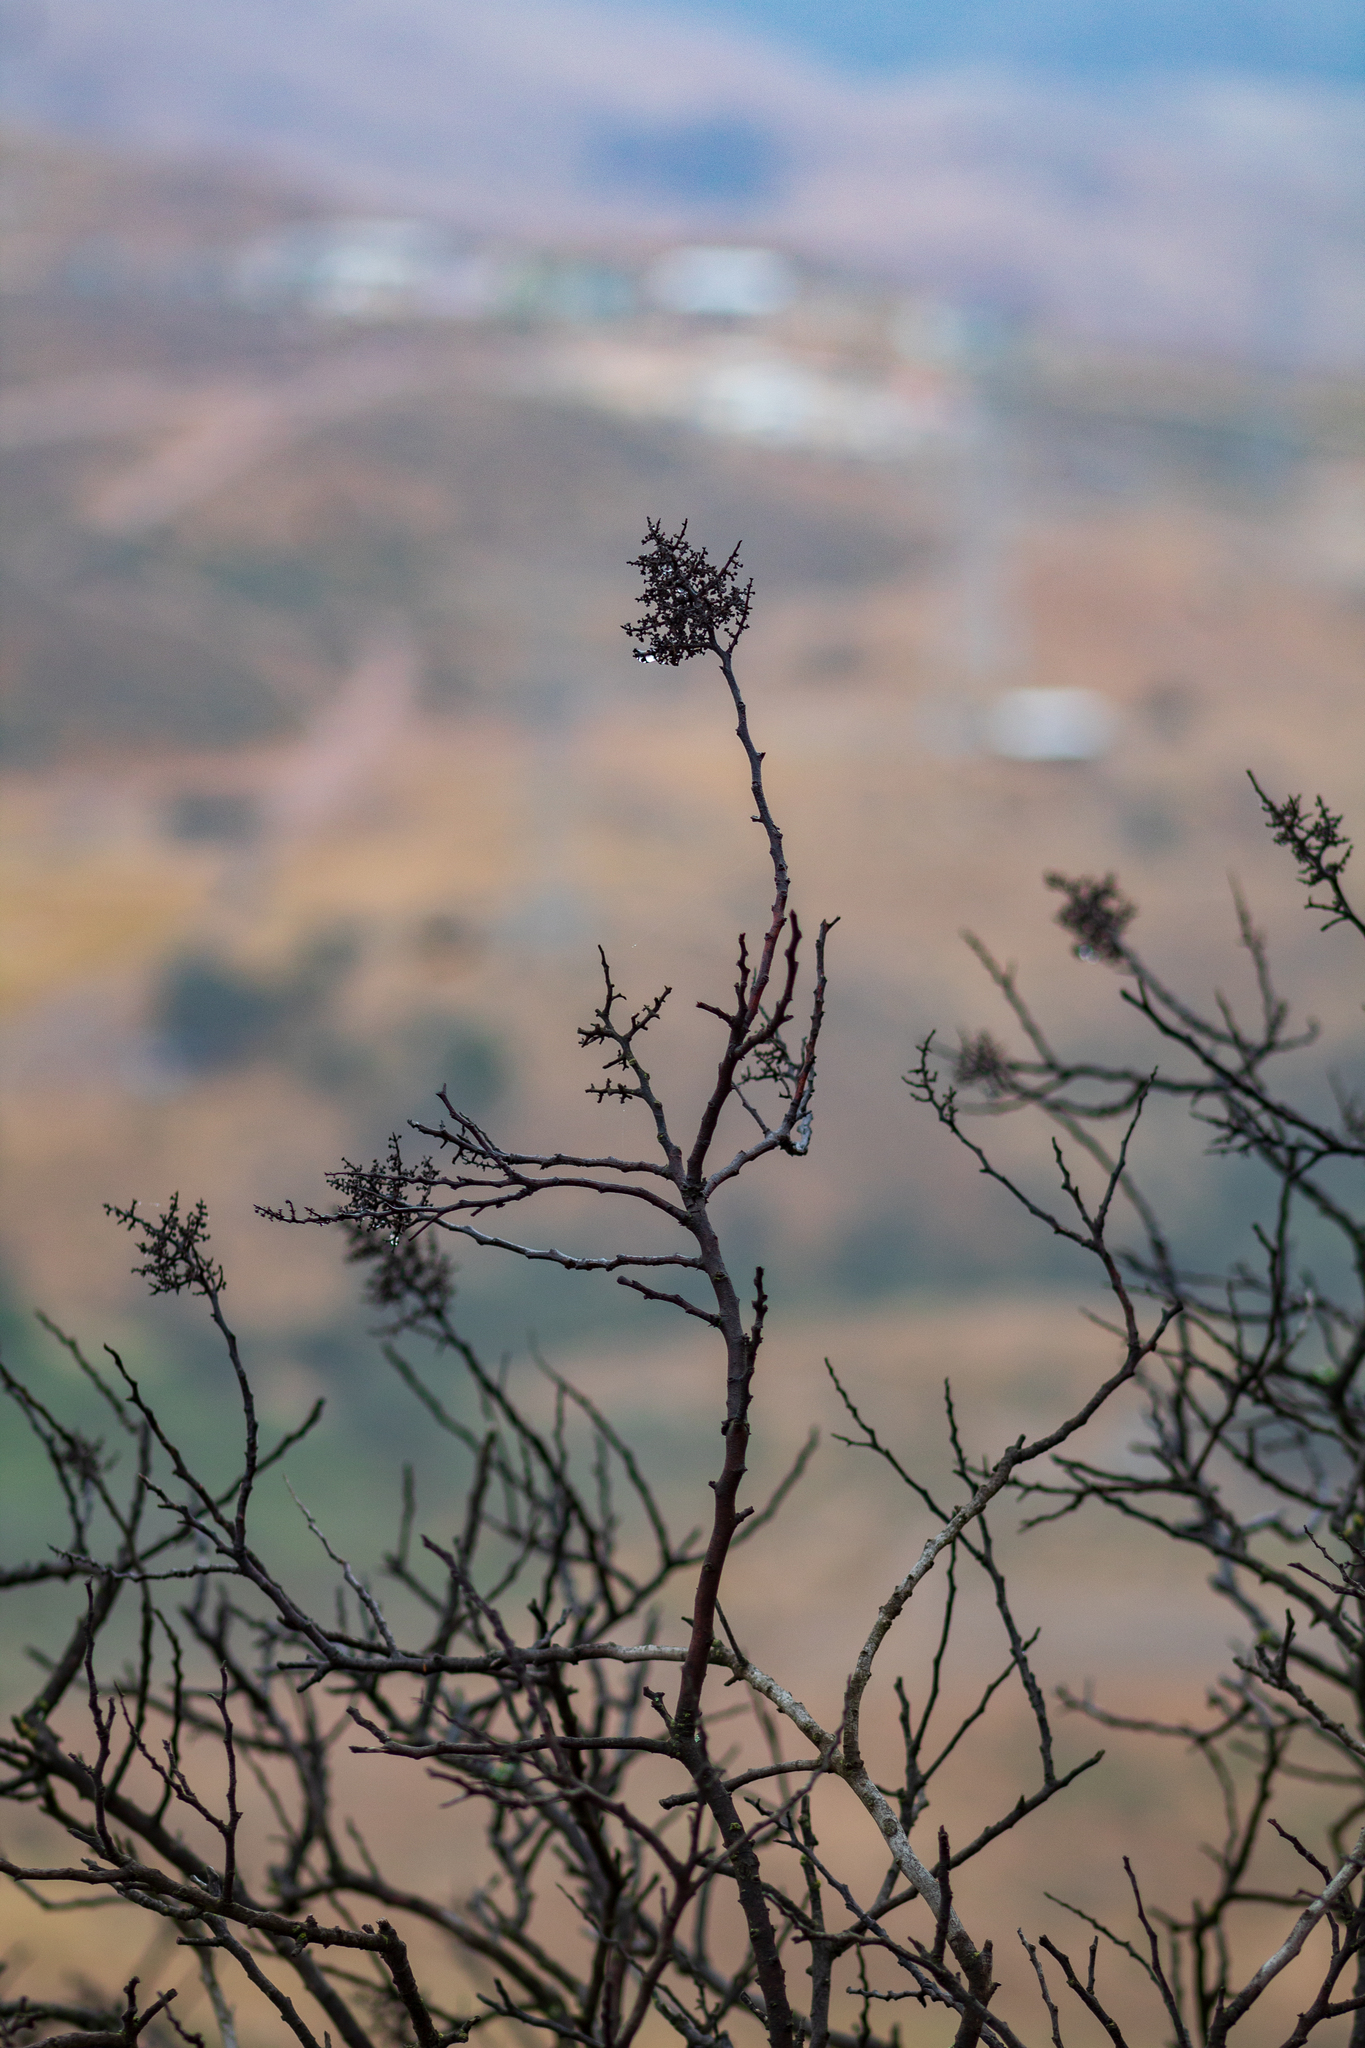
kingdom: Plantae
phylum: Tracheophyta
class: Magnoliopsida
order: Ericales
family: Fouquieriaceae
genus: Fouquieria
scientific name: Fouquieria diguetii
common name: Adam's tree
